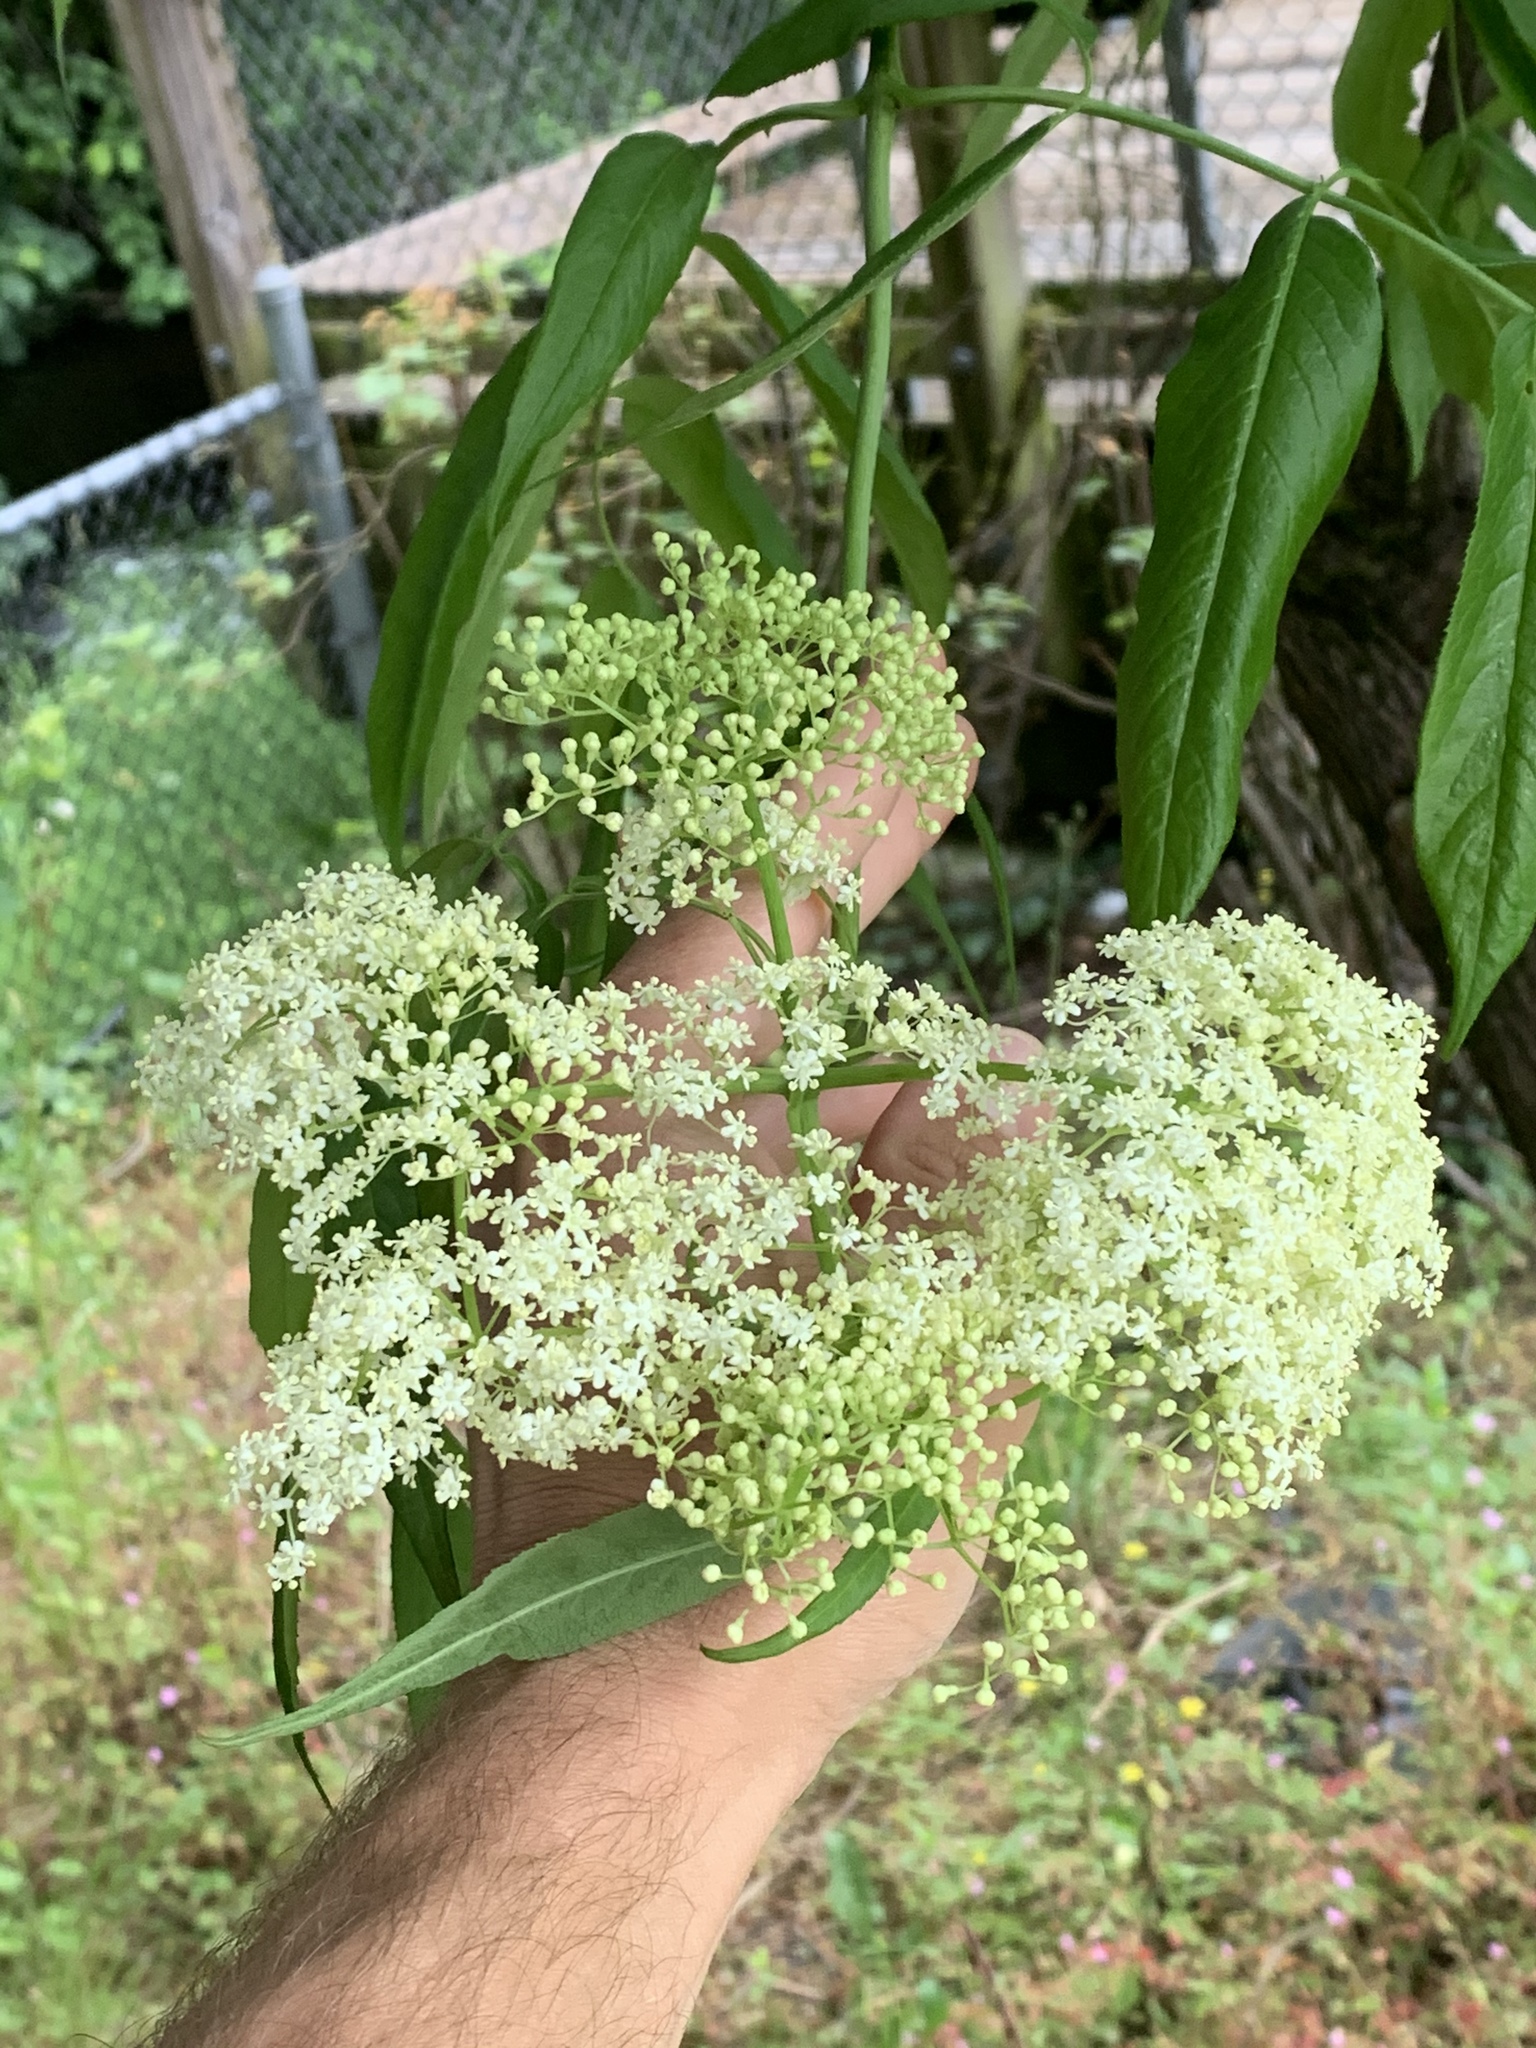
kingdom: Plantae
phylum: Tracheophyta
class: Magnoliopsida
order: Dipsacales
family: Viburnaceae
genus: Sambucus
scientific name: Sambucus cerulea
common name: Blue elder
